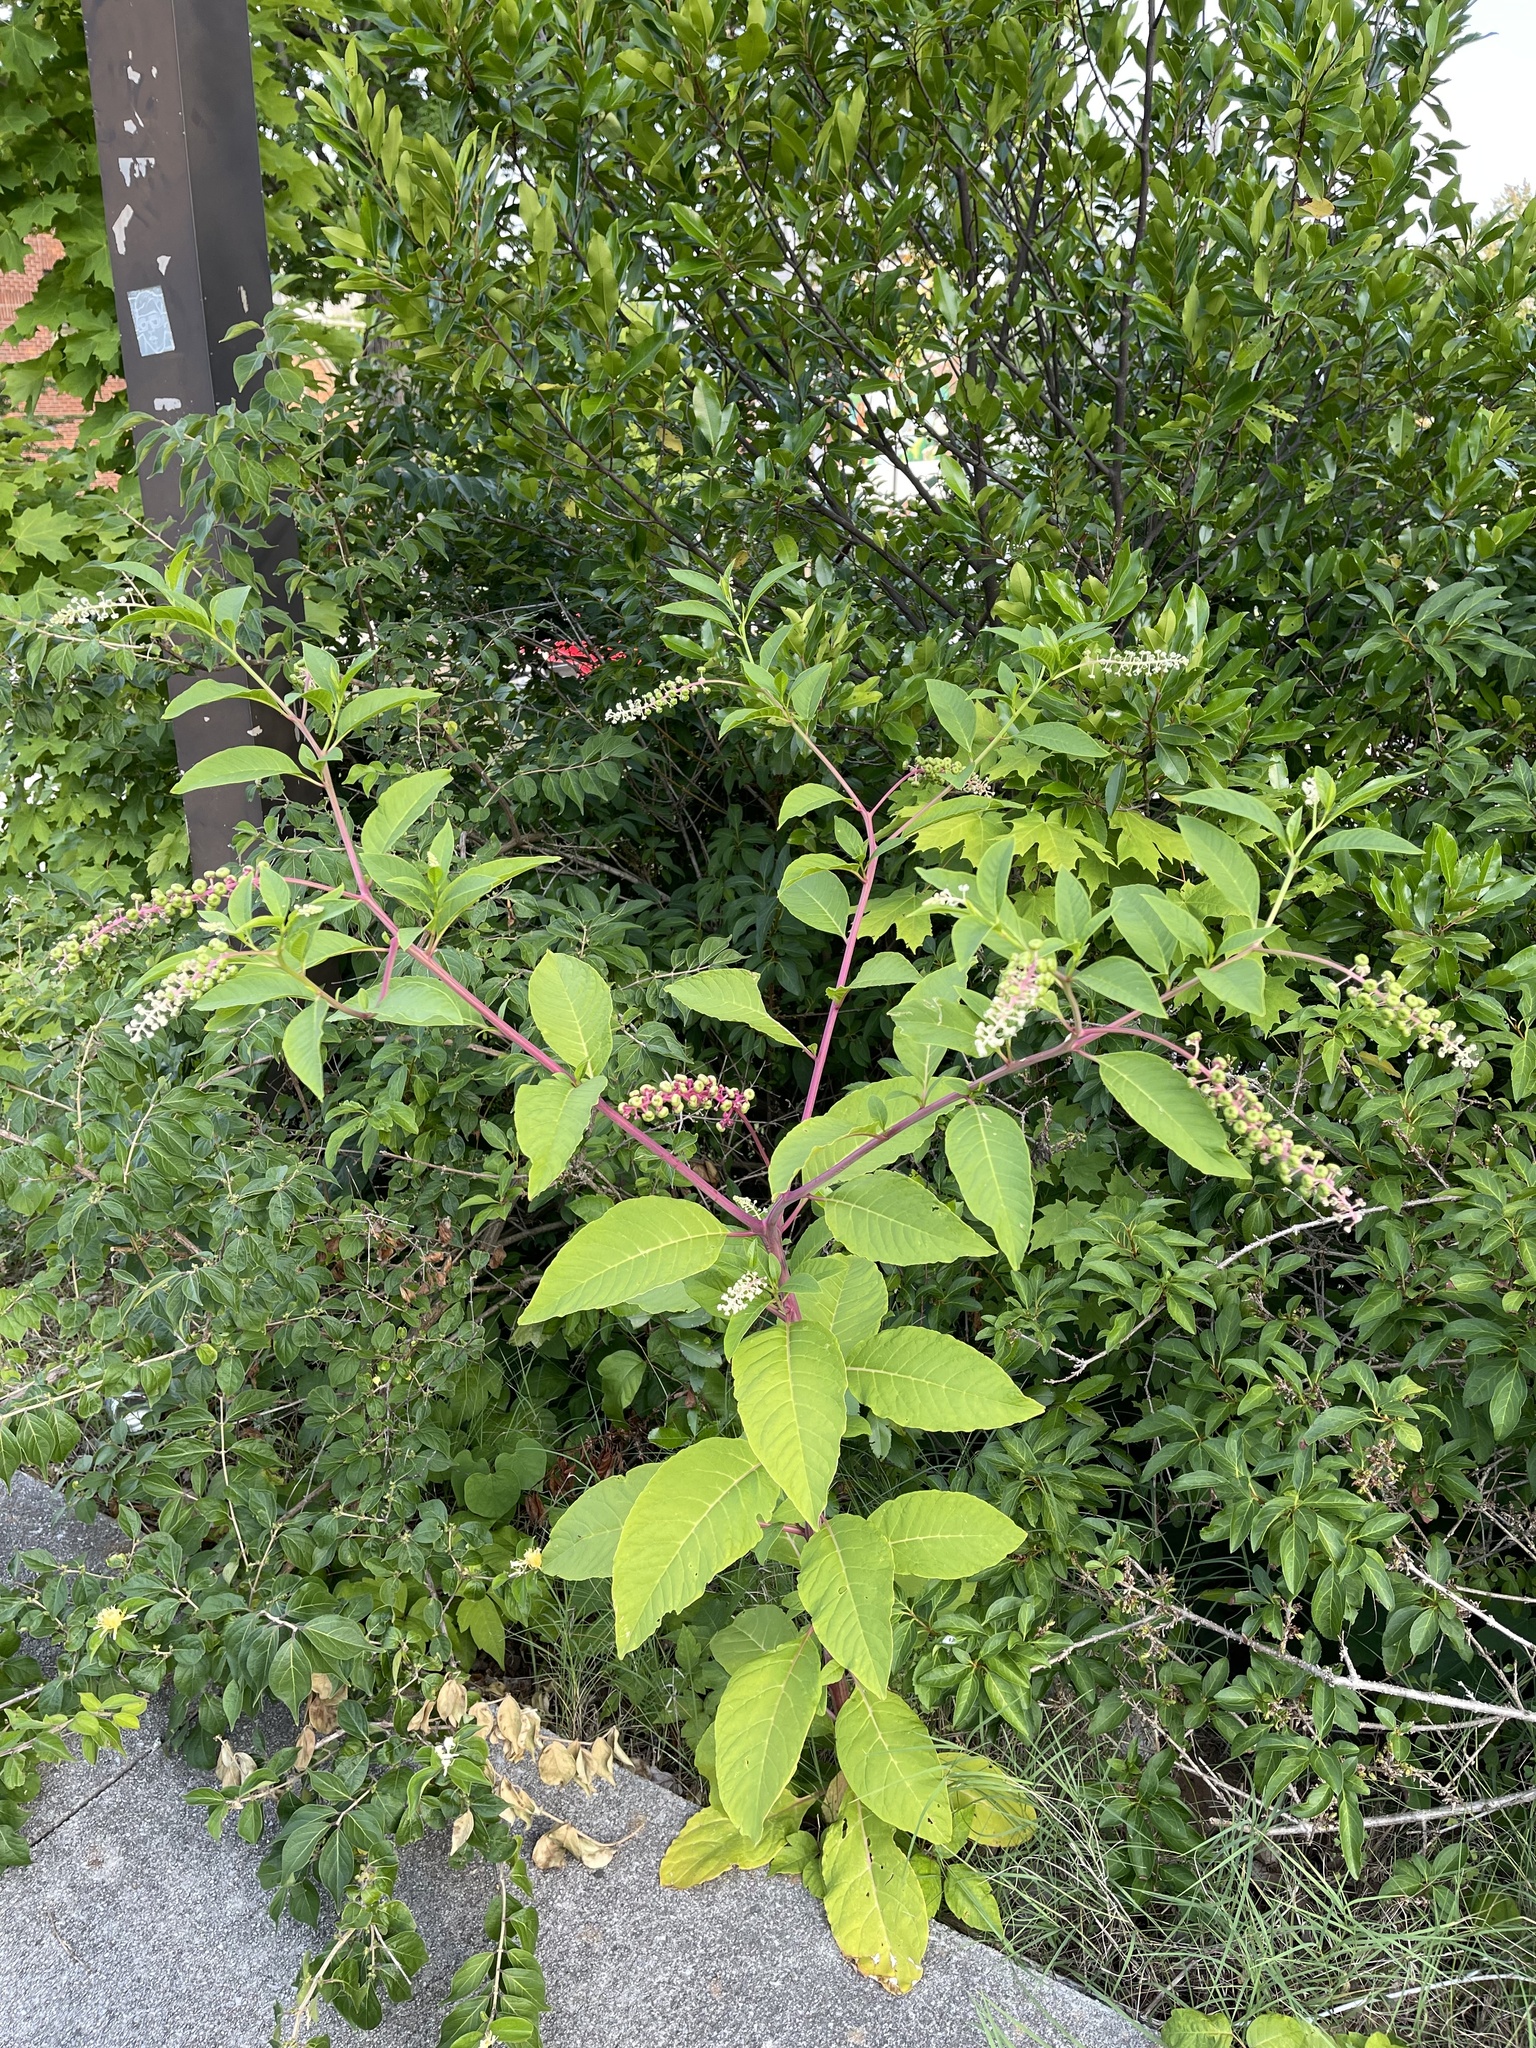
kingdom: Plantae
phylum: Tracheophyta
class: Magnoliopsida
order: Caryophyllales
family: Phytolaccaceae
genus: Phytolacca
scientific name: Phytolacca americana
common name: American pokeweed
